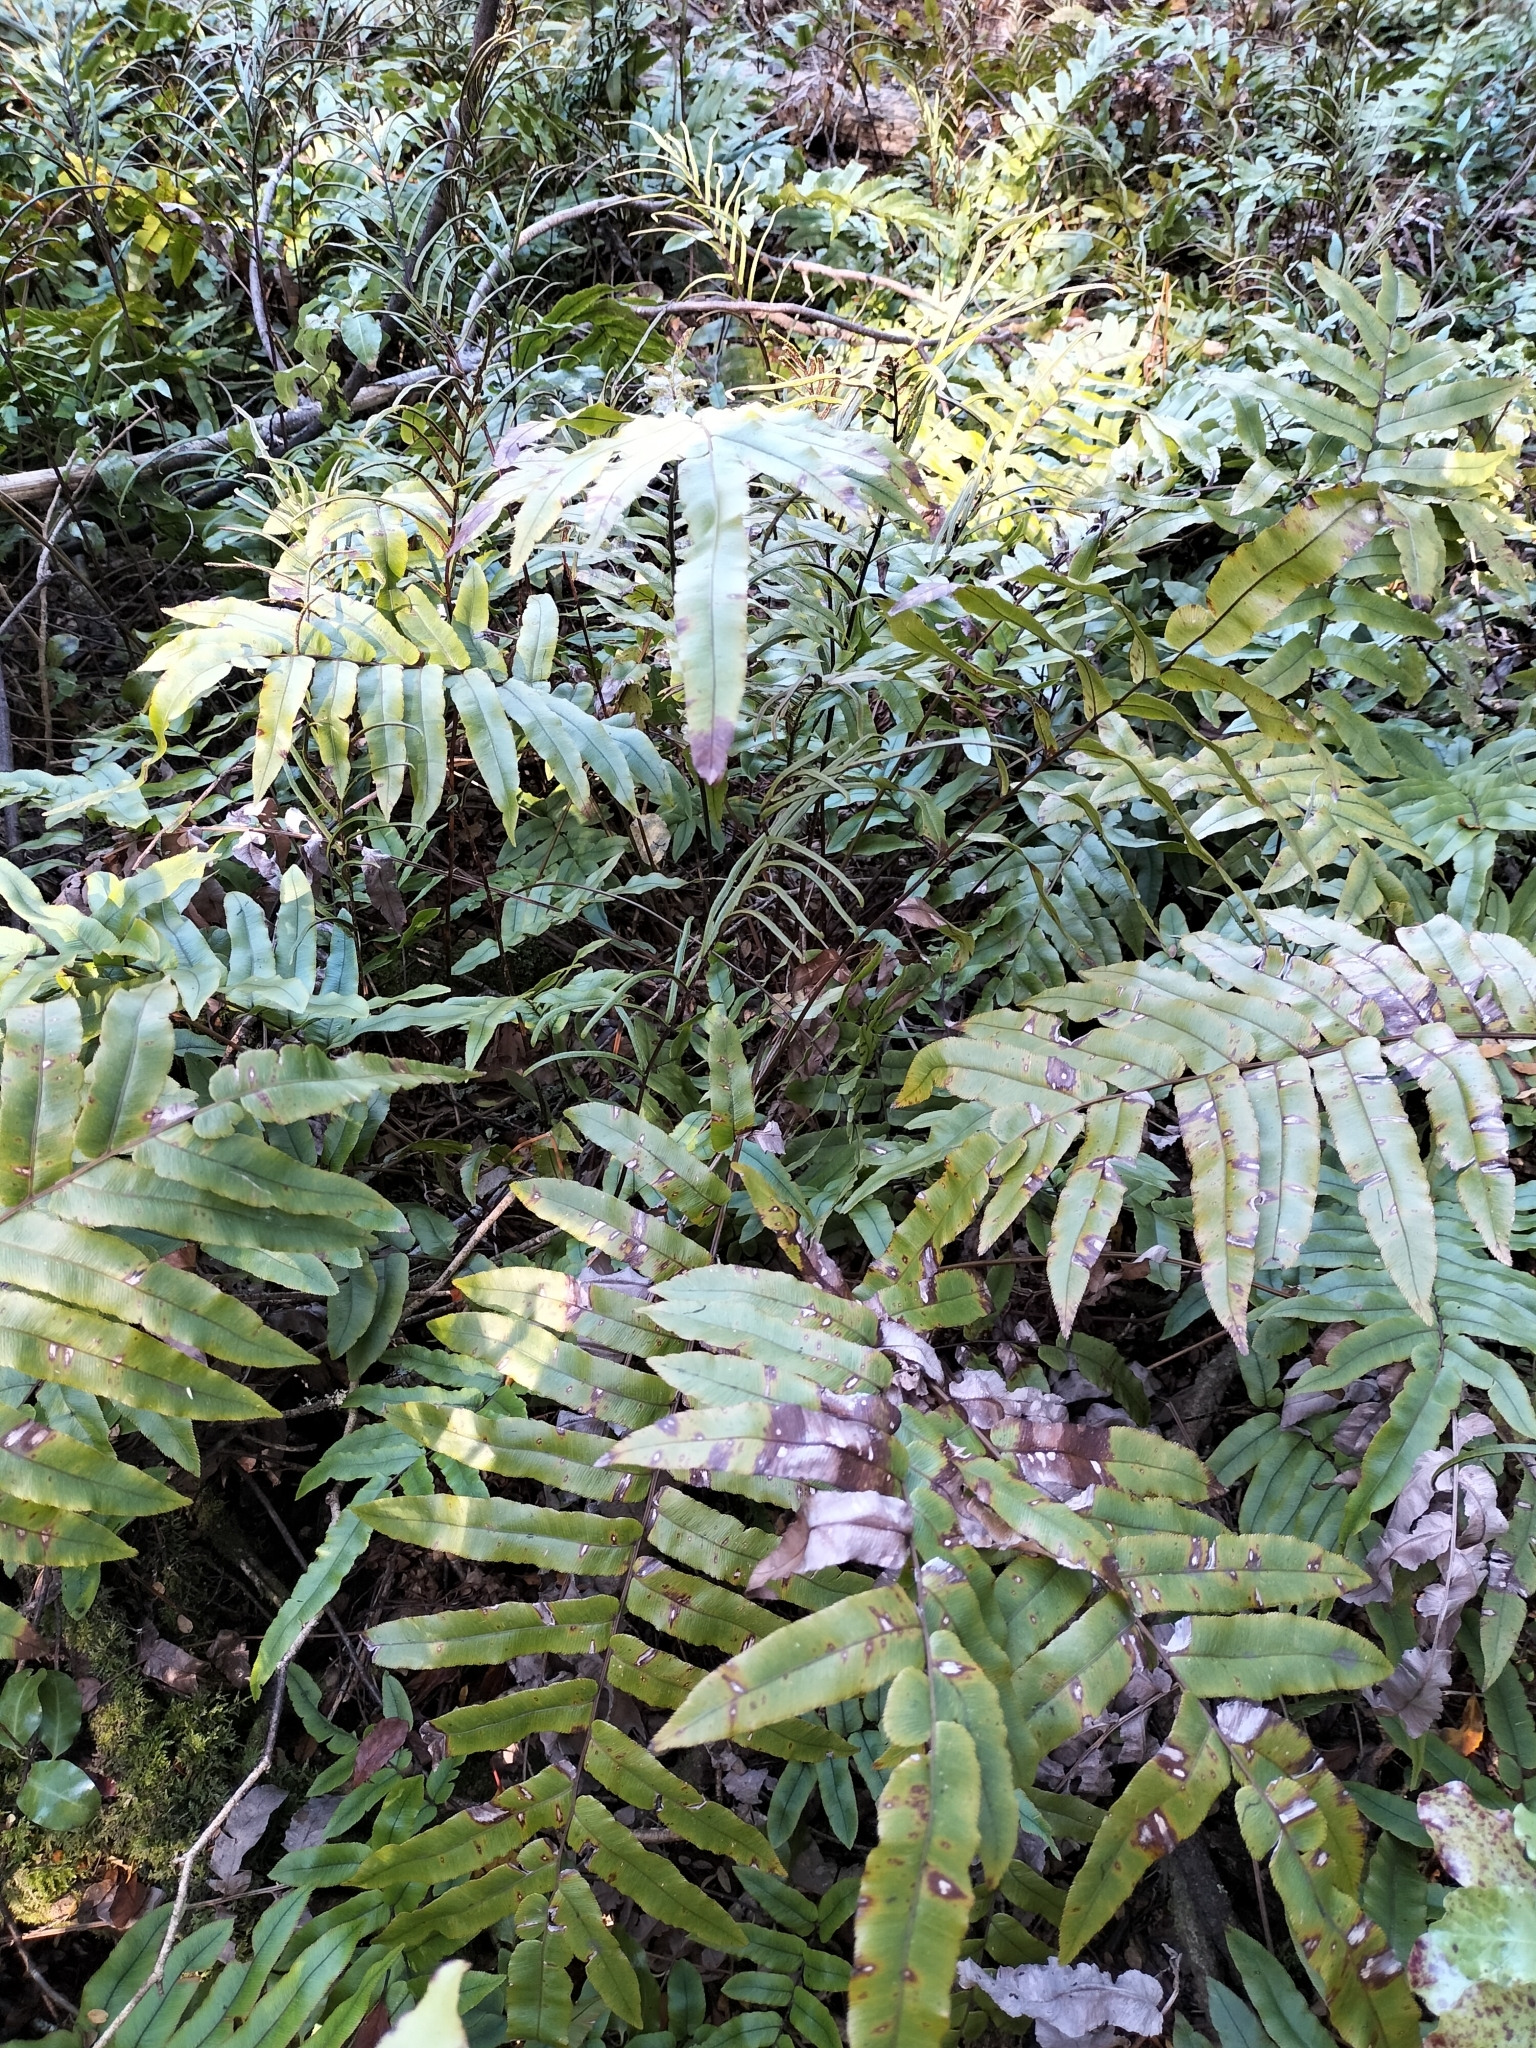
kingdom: Plantae
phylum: Tracheophyta
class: Polypodiopsida
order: Polypodiales
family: Blechnaceae
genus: Parablechnum
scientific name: Parablechnum procerum
